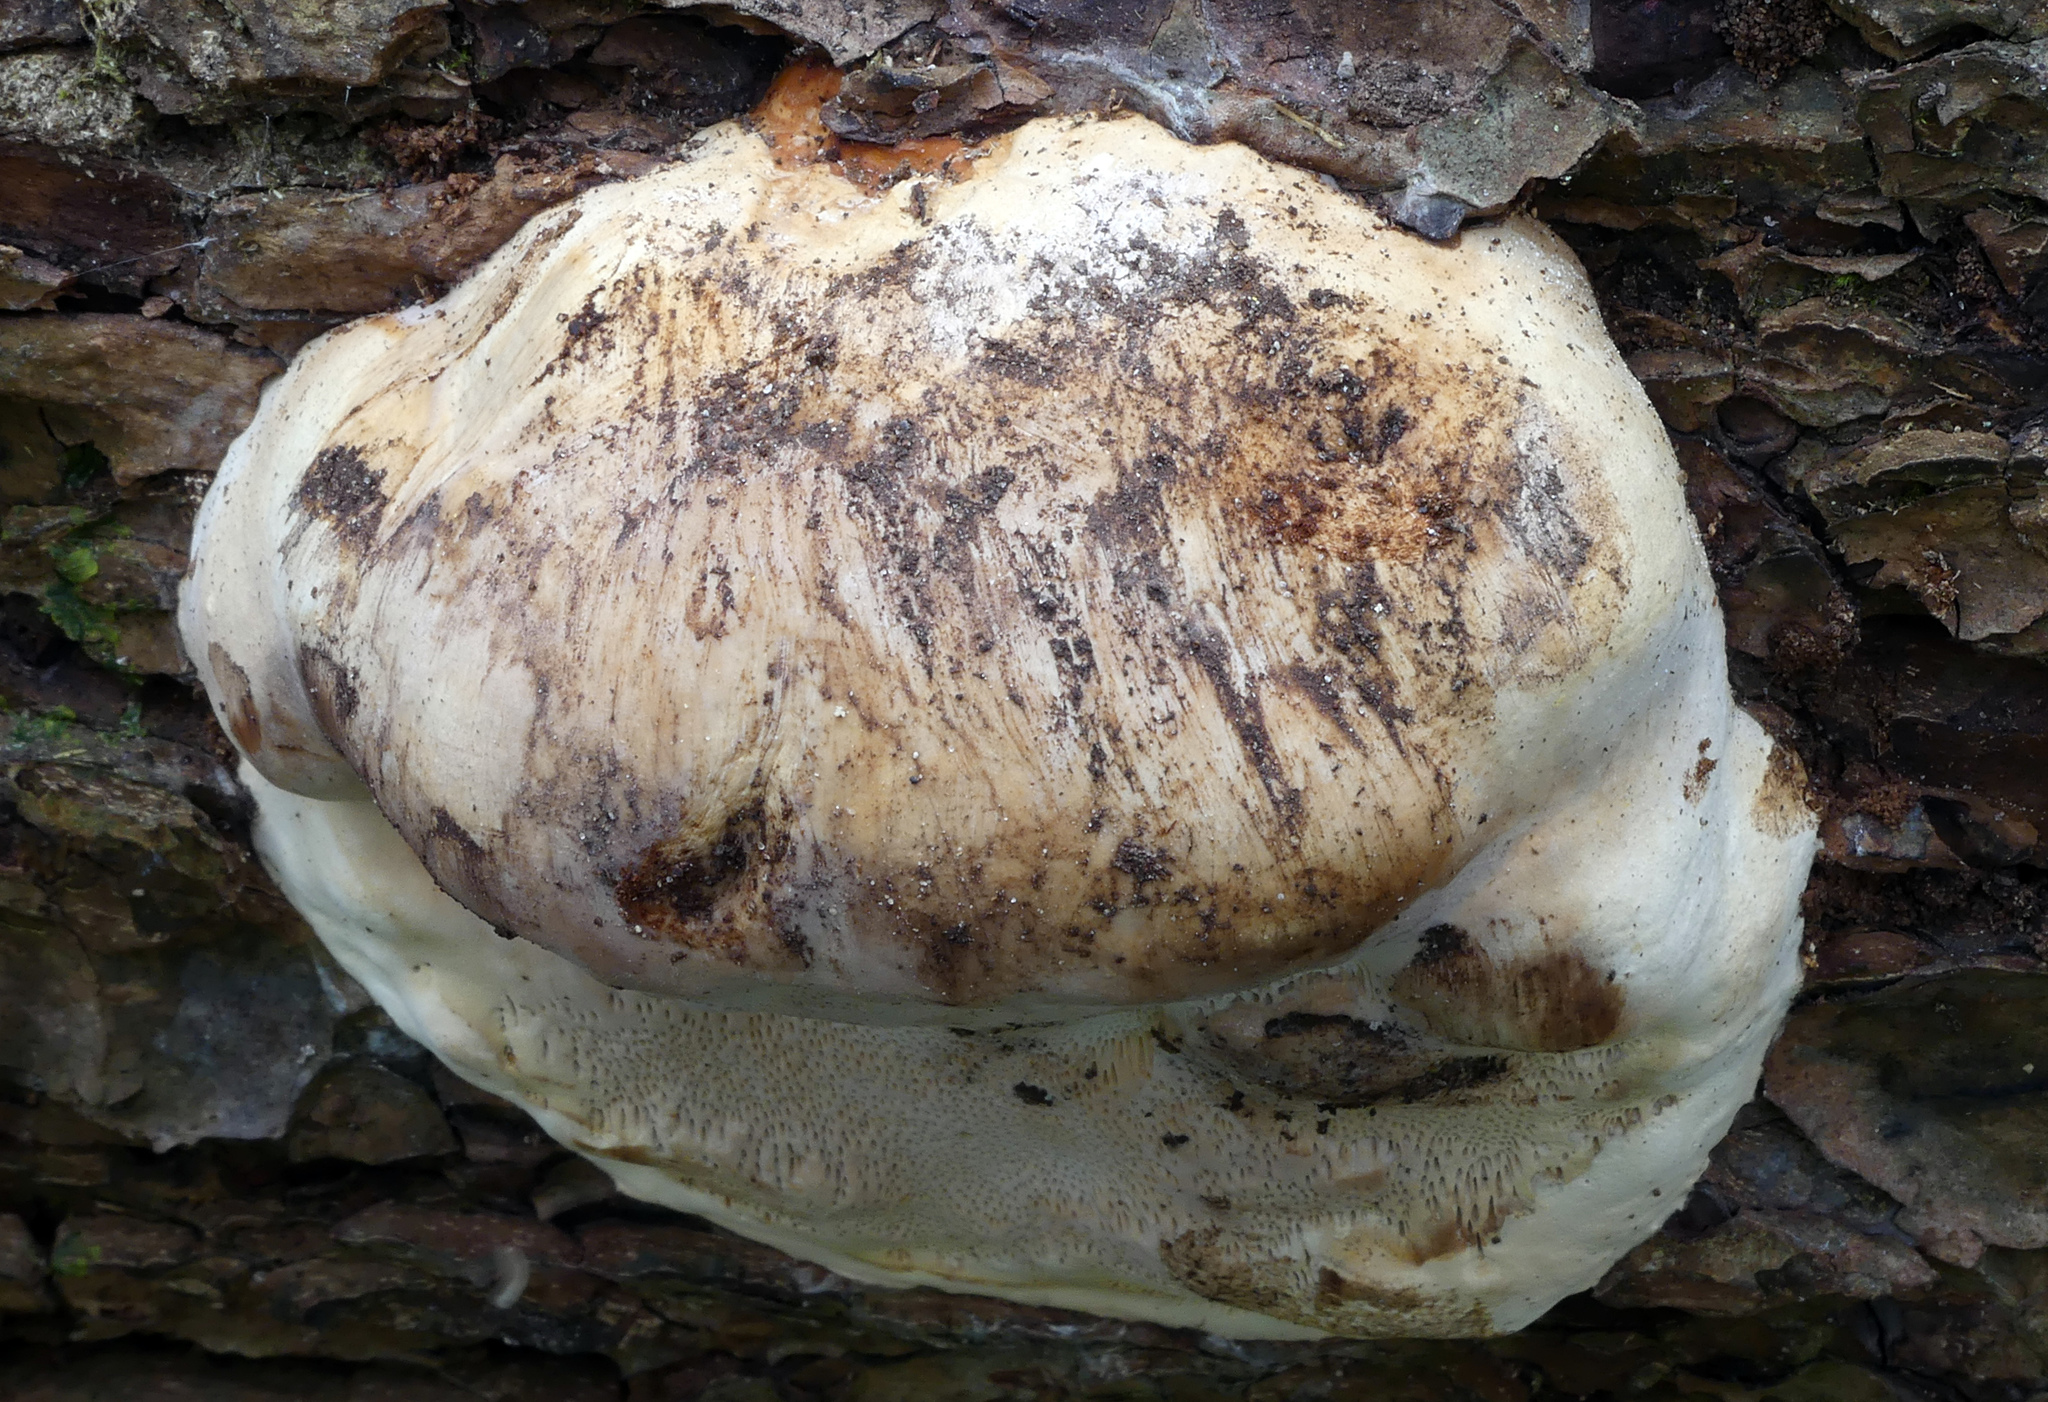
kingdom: Fungi
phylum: Basidiomycota
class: Agaricomycetes
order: Polyporales
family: Fomitopsidaceae
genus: Fomitopsis
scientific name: Fomitopsis pinicola
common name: Red-belted bracket
